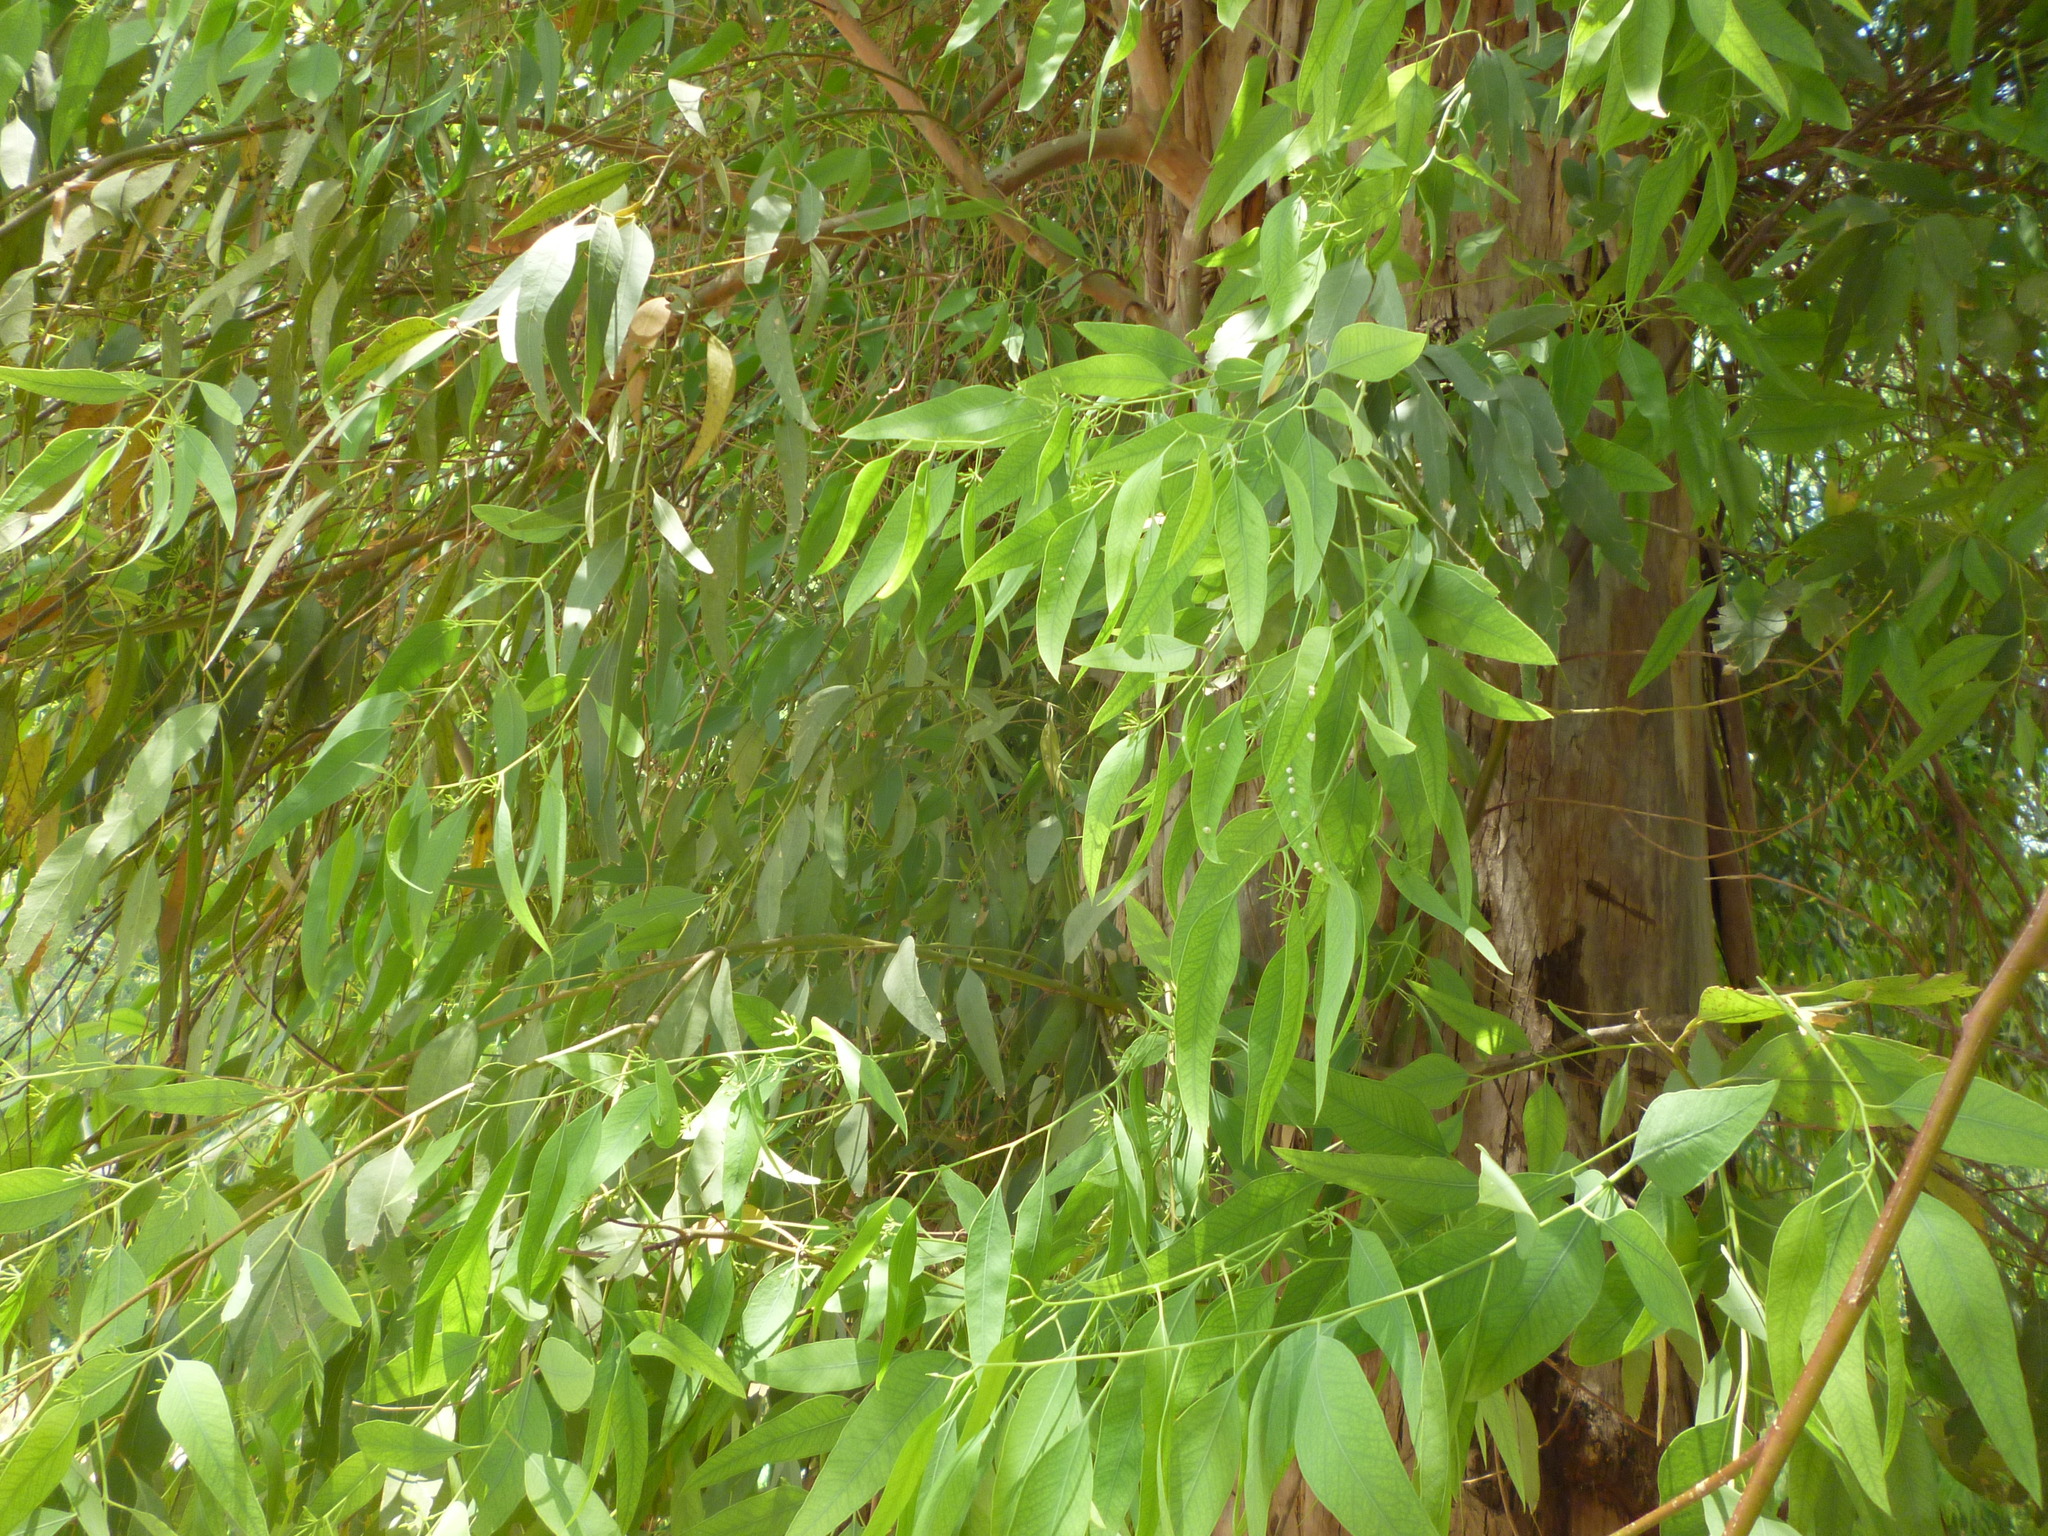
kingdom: Animalia
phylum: Arthropoda
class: Insecta
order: Hemiptera
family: Aphalaridae
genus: Glycaspis
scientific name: Glycaspis brimblecombei
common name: Red gum lerp psyllid
